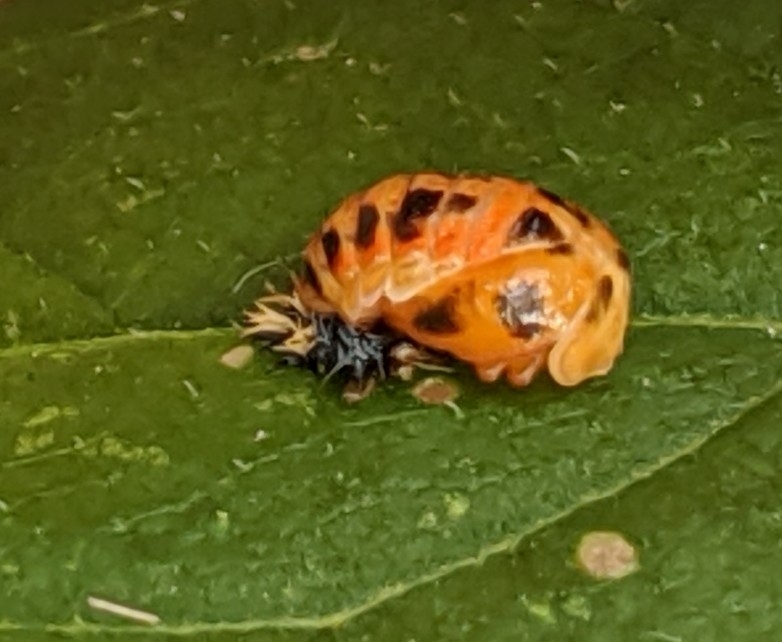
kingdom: Animalia
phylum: Arthropoda
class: Insecta
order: Coleoptera
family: Coccinellidae
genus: Harmonia
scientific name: Harmonia axyridis
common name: Harlequin ladybird
